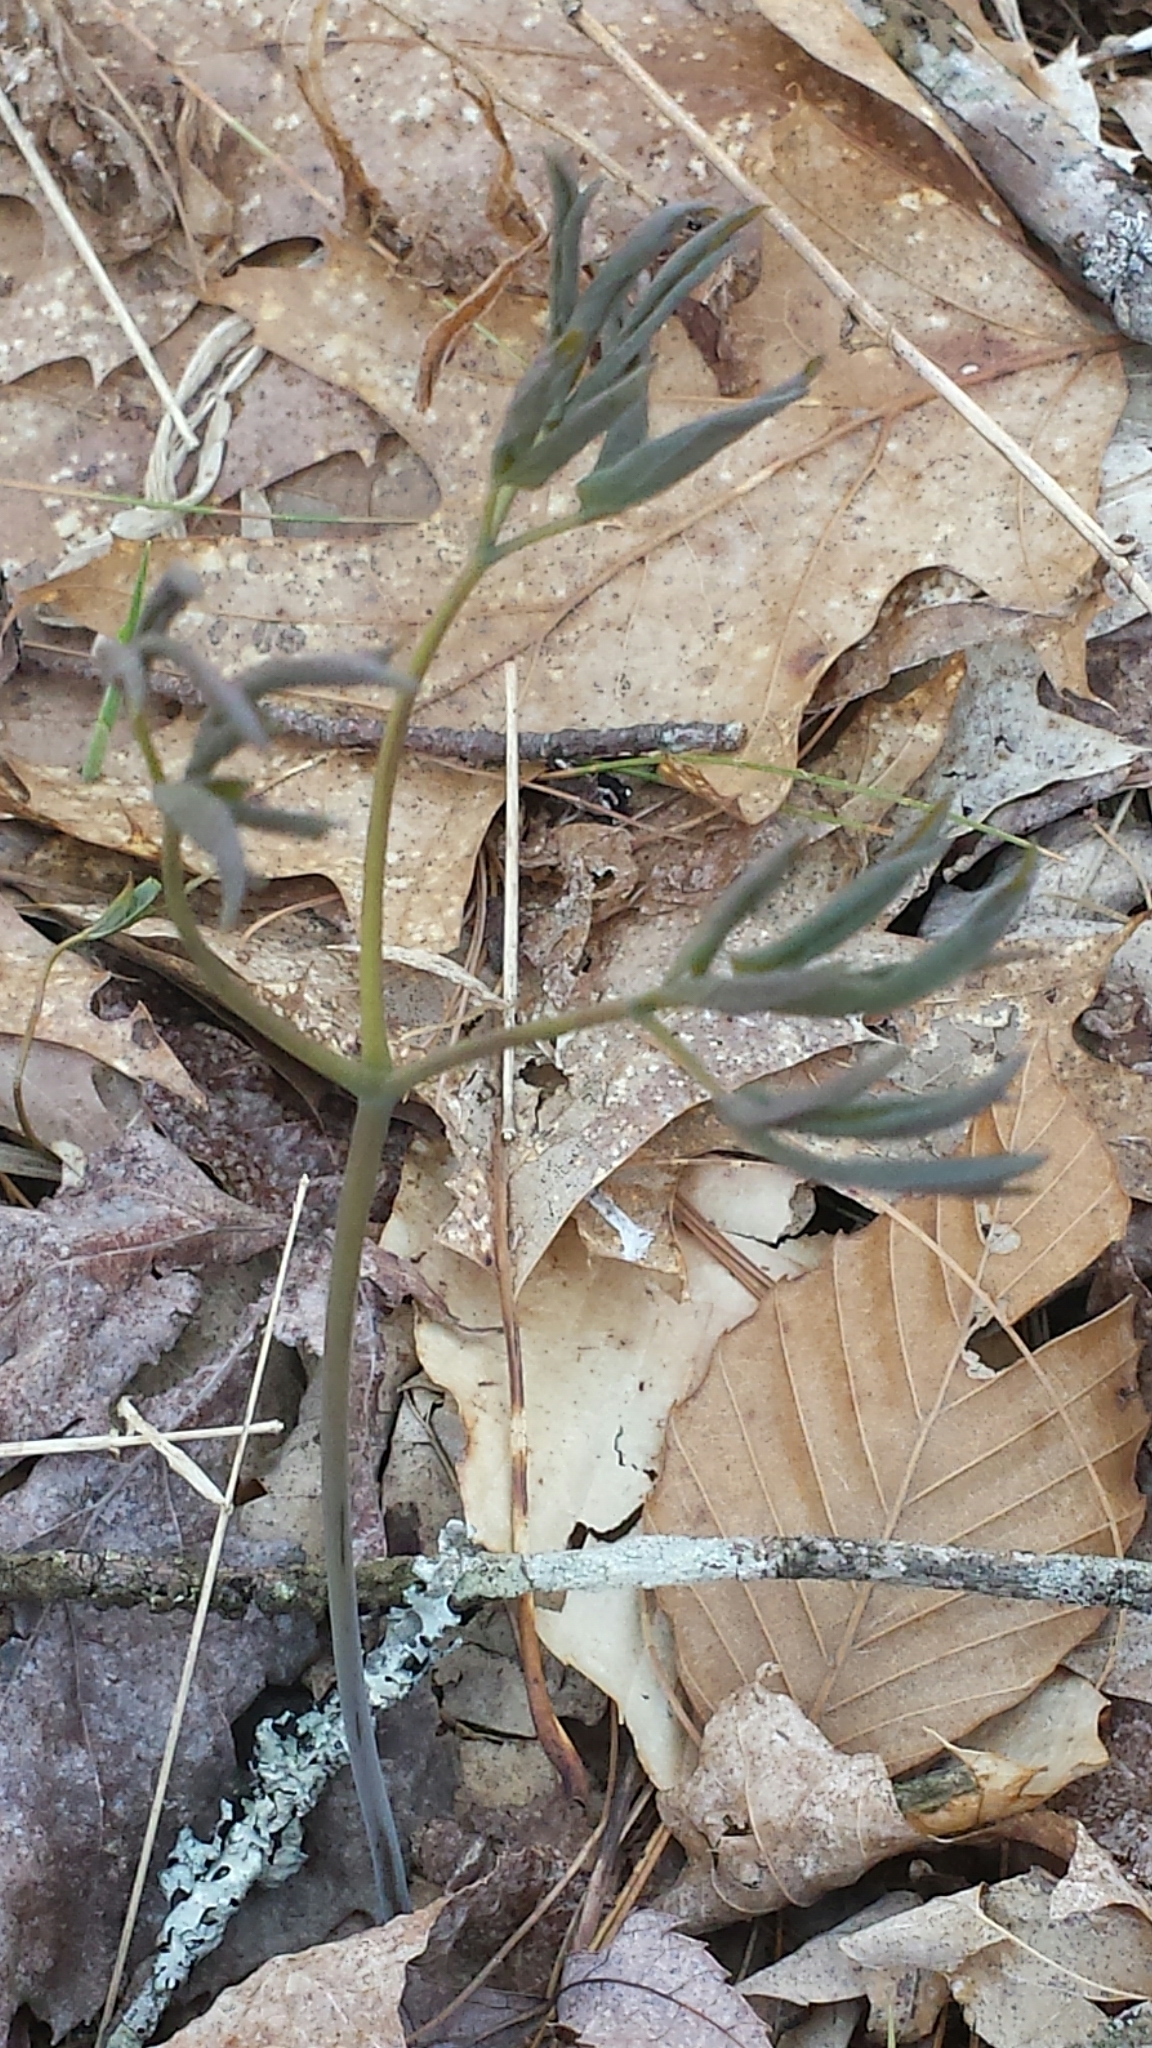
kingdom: Plantae
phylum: Tracheophyta
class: Magnoliopsida
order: Ranunculales
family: Berberidaceae
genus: Caulophyllum
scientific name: Caulophyllum giganteum
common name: Blue cohosh
